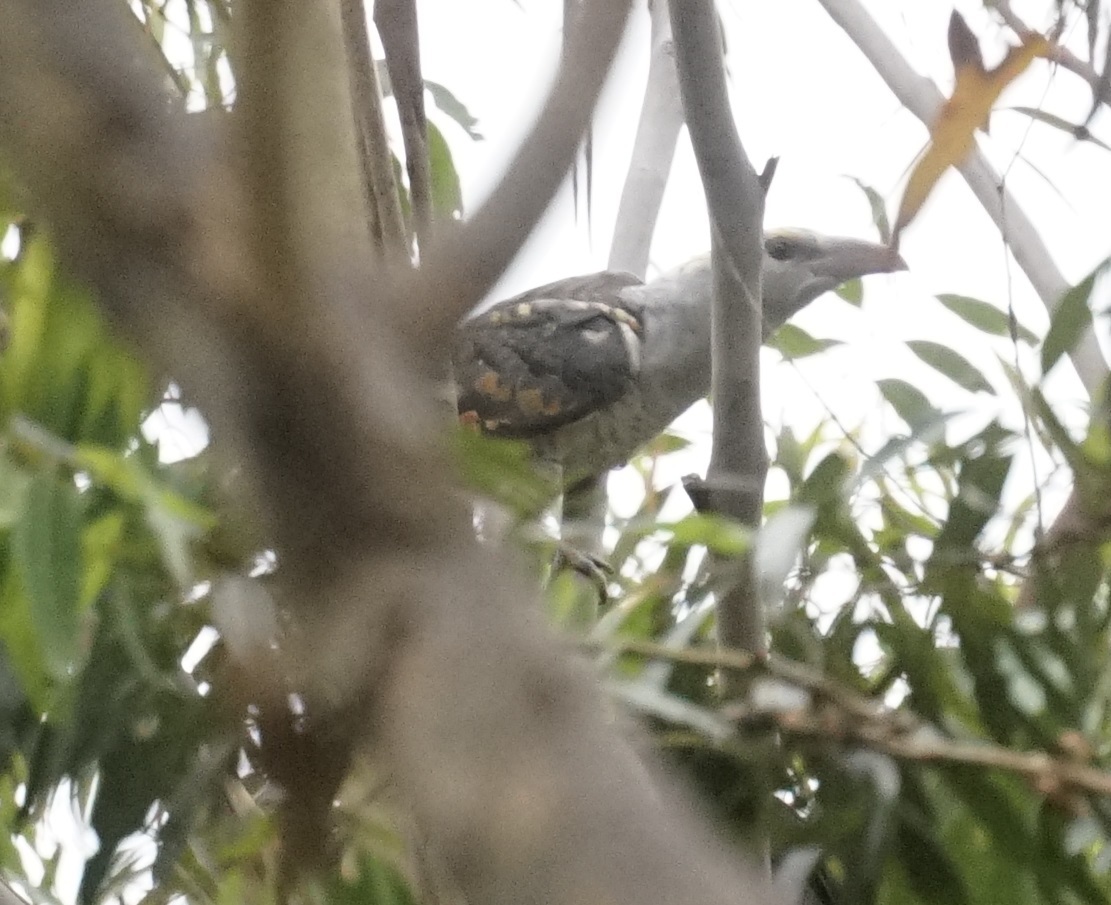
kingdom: Animalia
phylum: Chordata
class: Aves
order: Cuculiformes
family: Cuculidae
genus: Scythrops
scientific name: Scythrops novaehollandiae
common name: Channel-billed cuckoo
